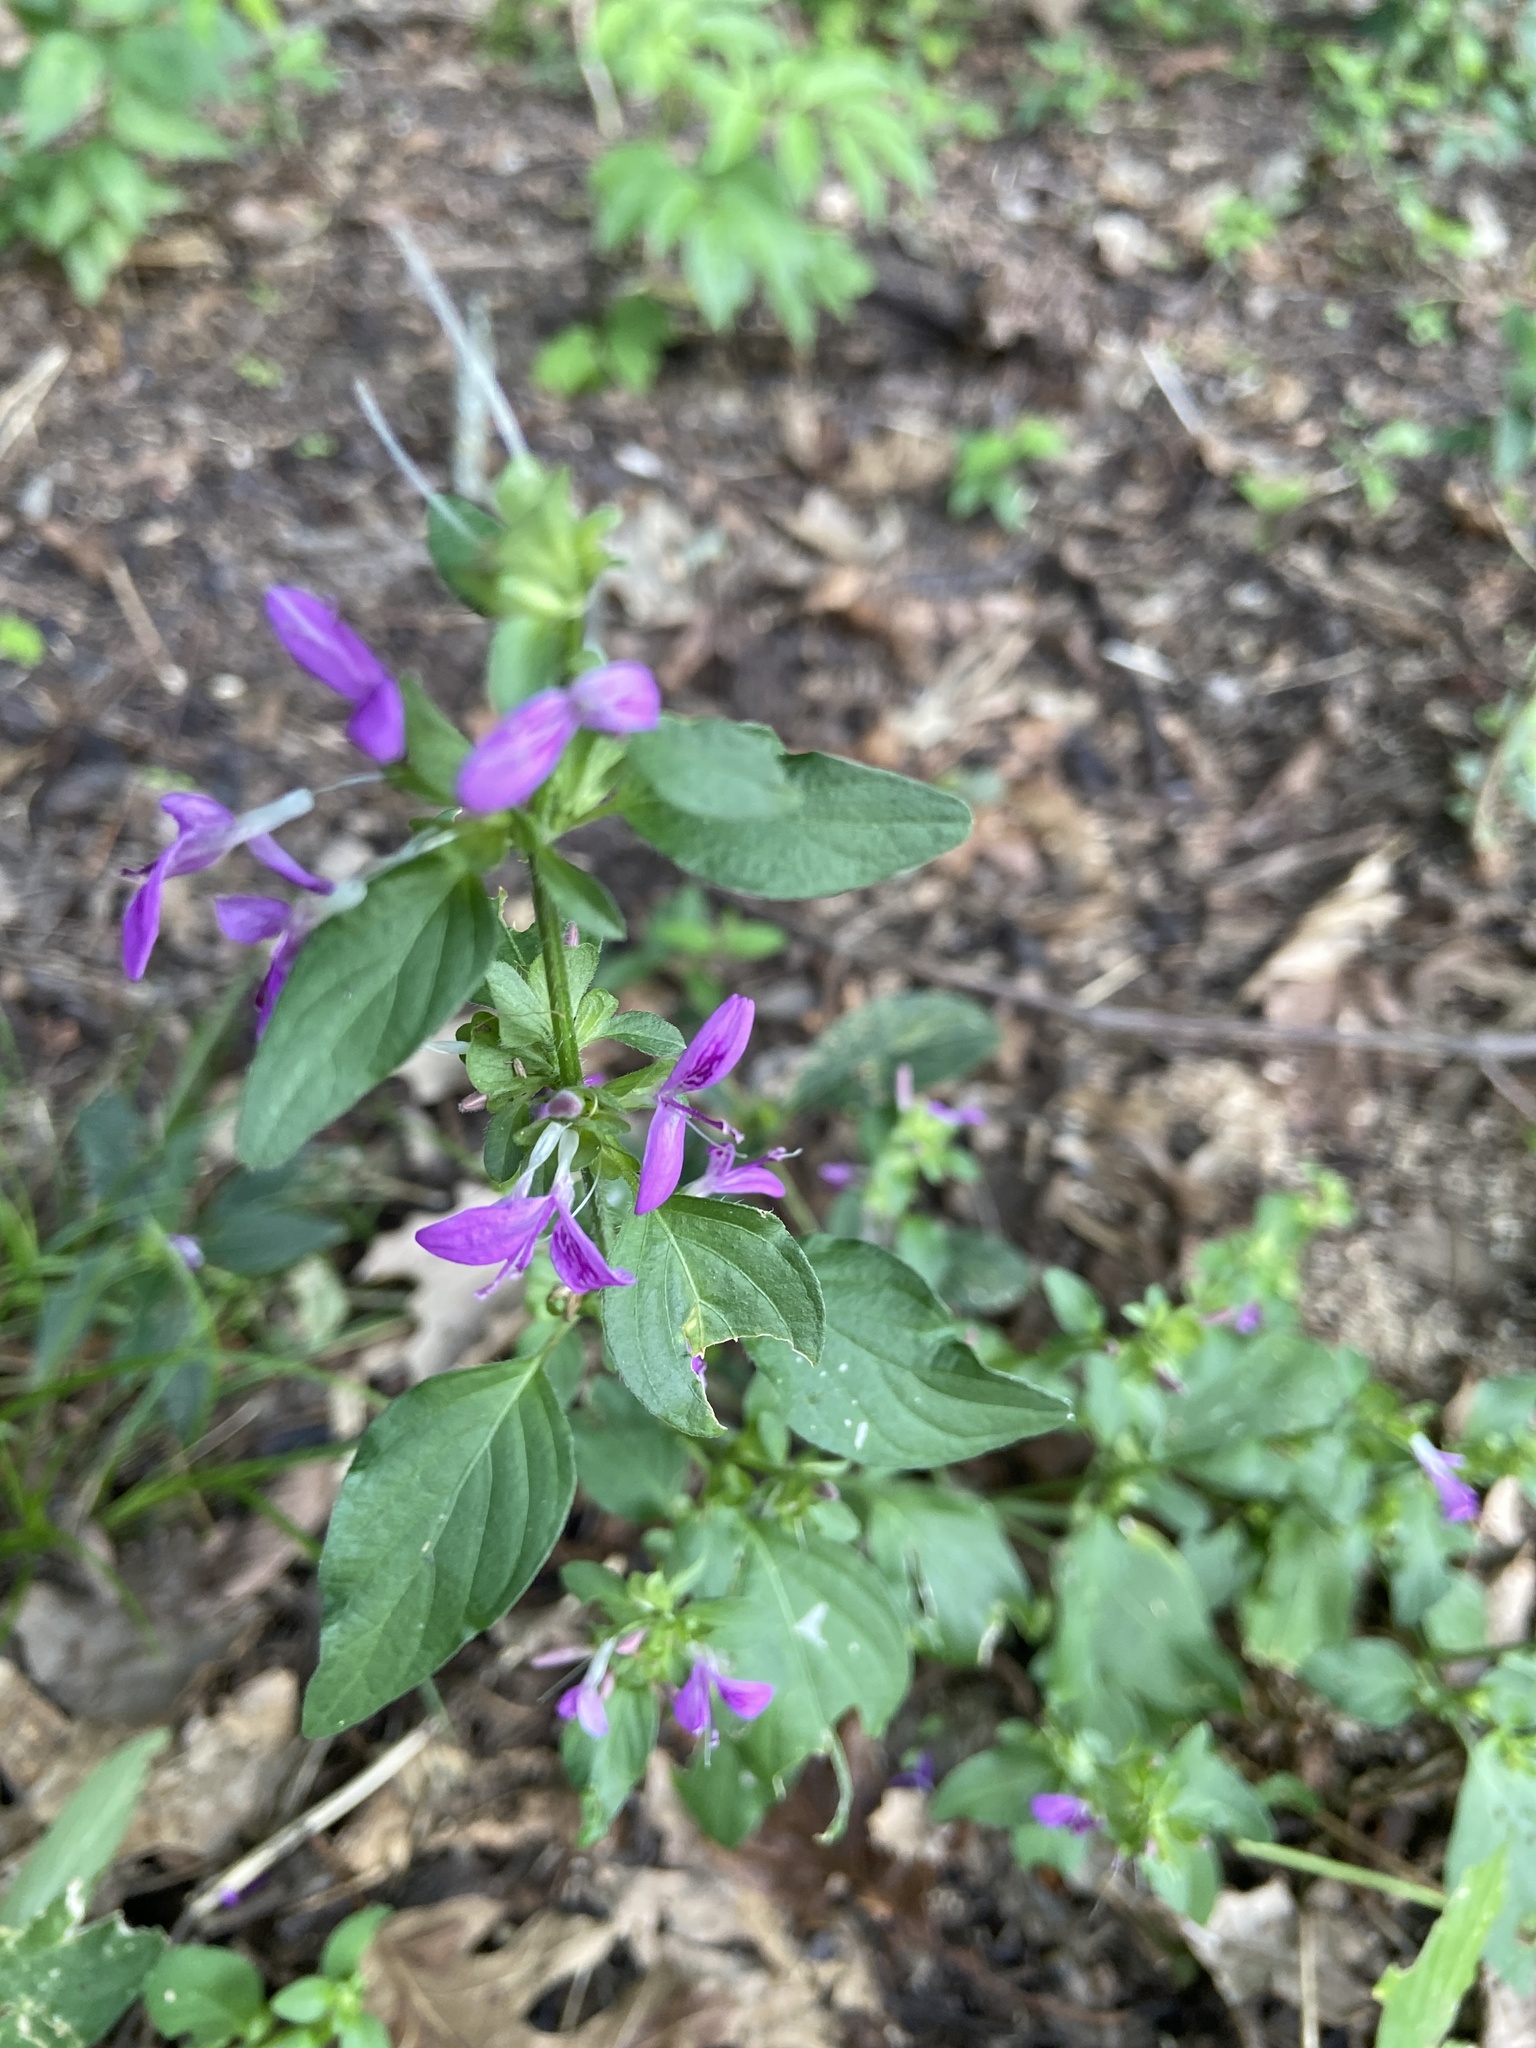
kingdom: Plantae
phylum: Tracheophyta
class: Magnoliopsida
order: Lamiales
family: Acanthaceae
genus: Dicliptera
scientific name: Dicliptera brachiata
